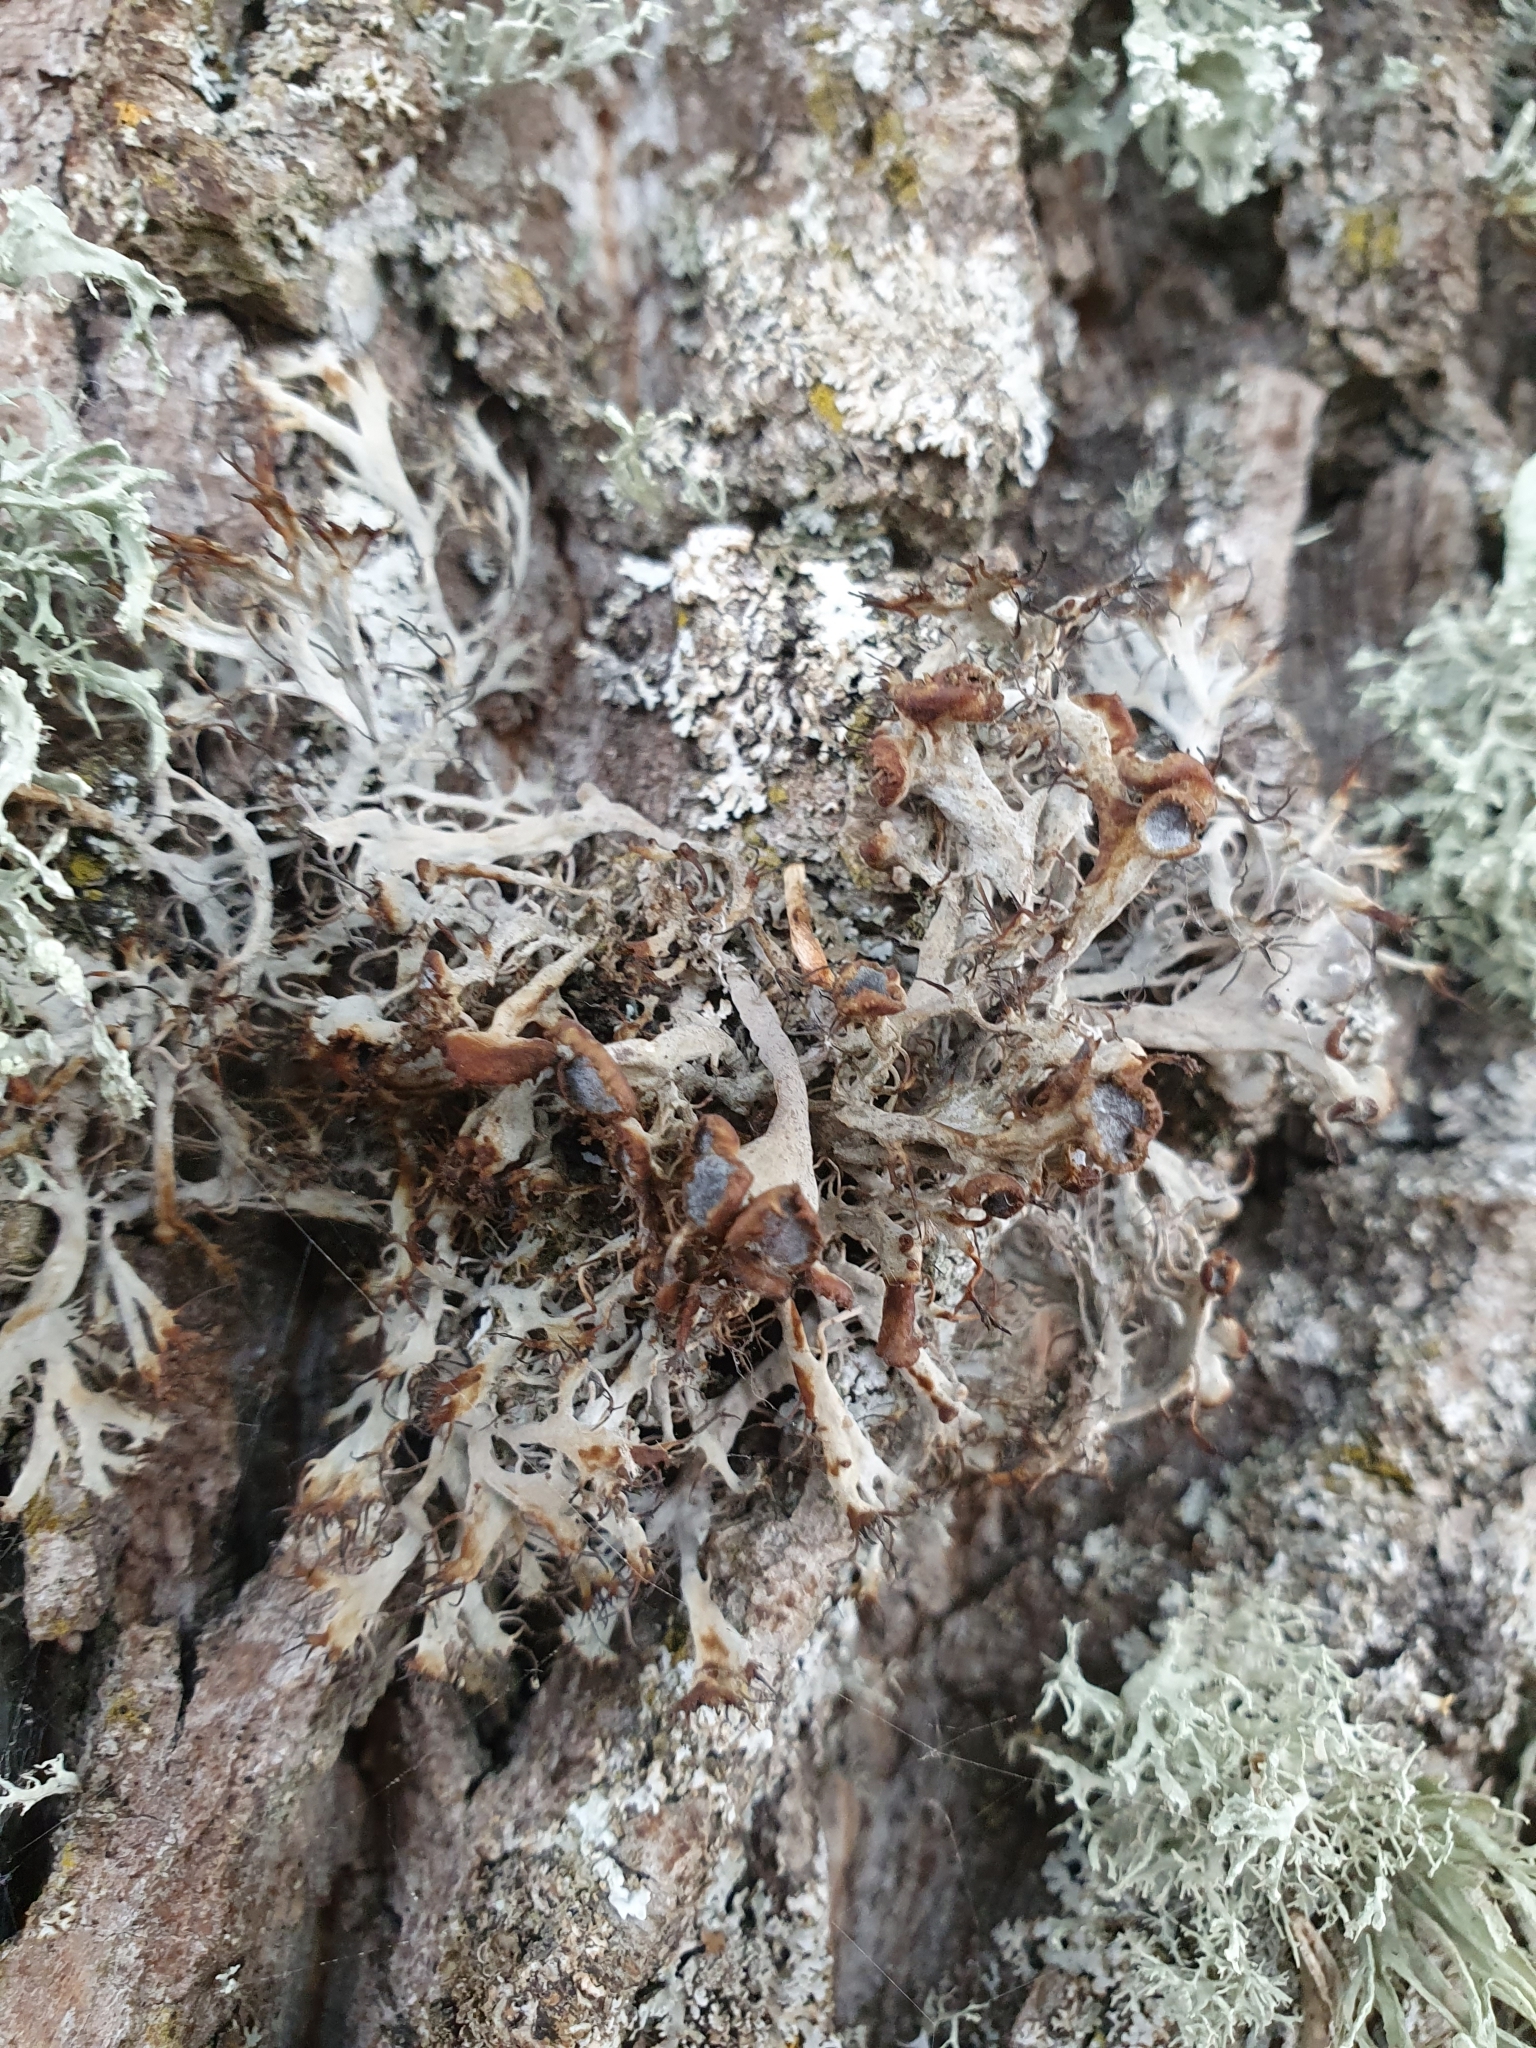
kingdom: Fungi
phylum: Ascomycota
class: Lecanoromycetes
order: Caliciales
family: Physciaceae
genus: Anaptychia
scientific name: Anaptychia ciliaris
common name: Great ciliated lichen
